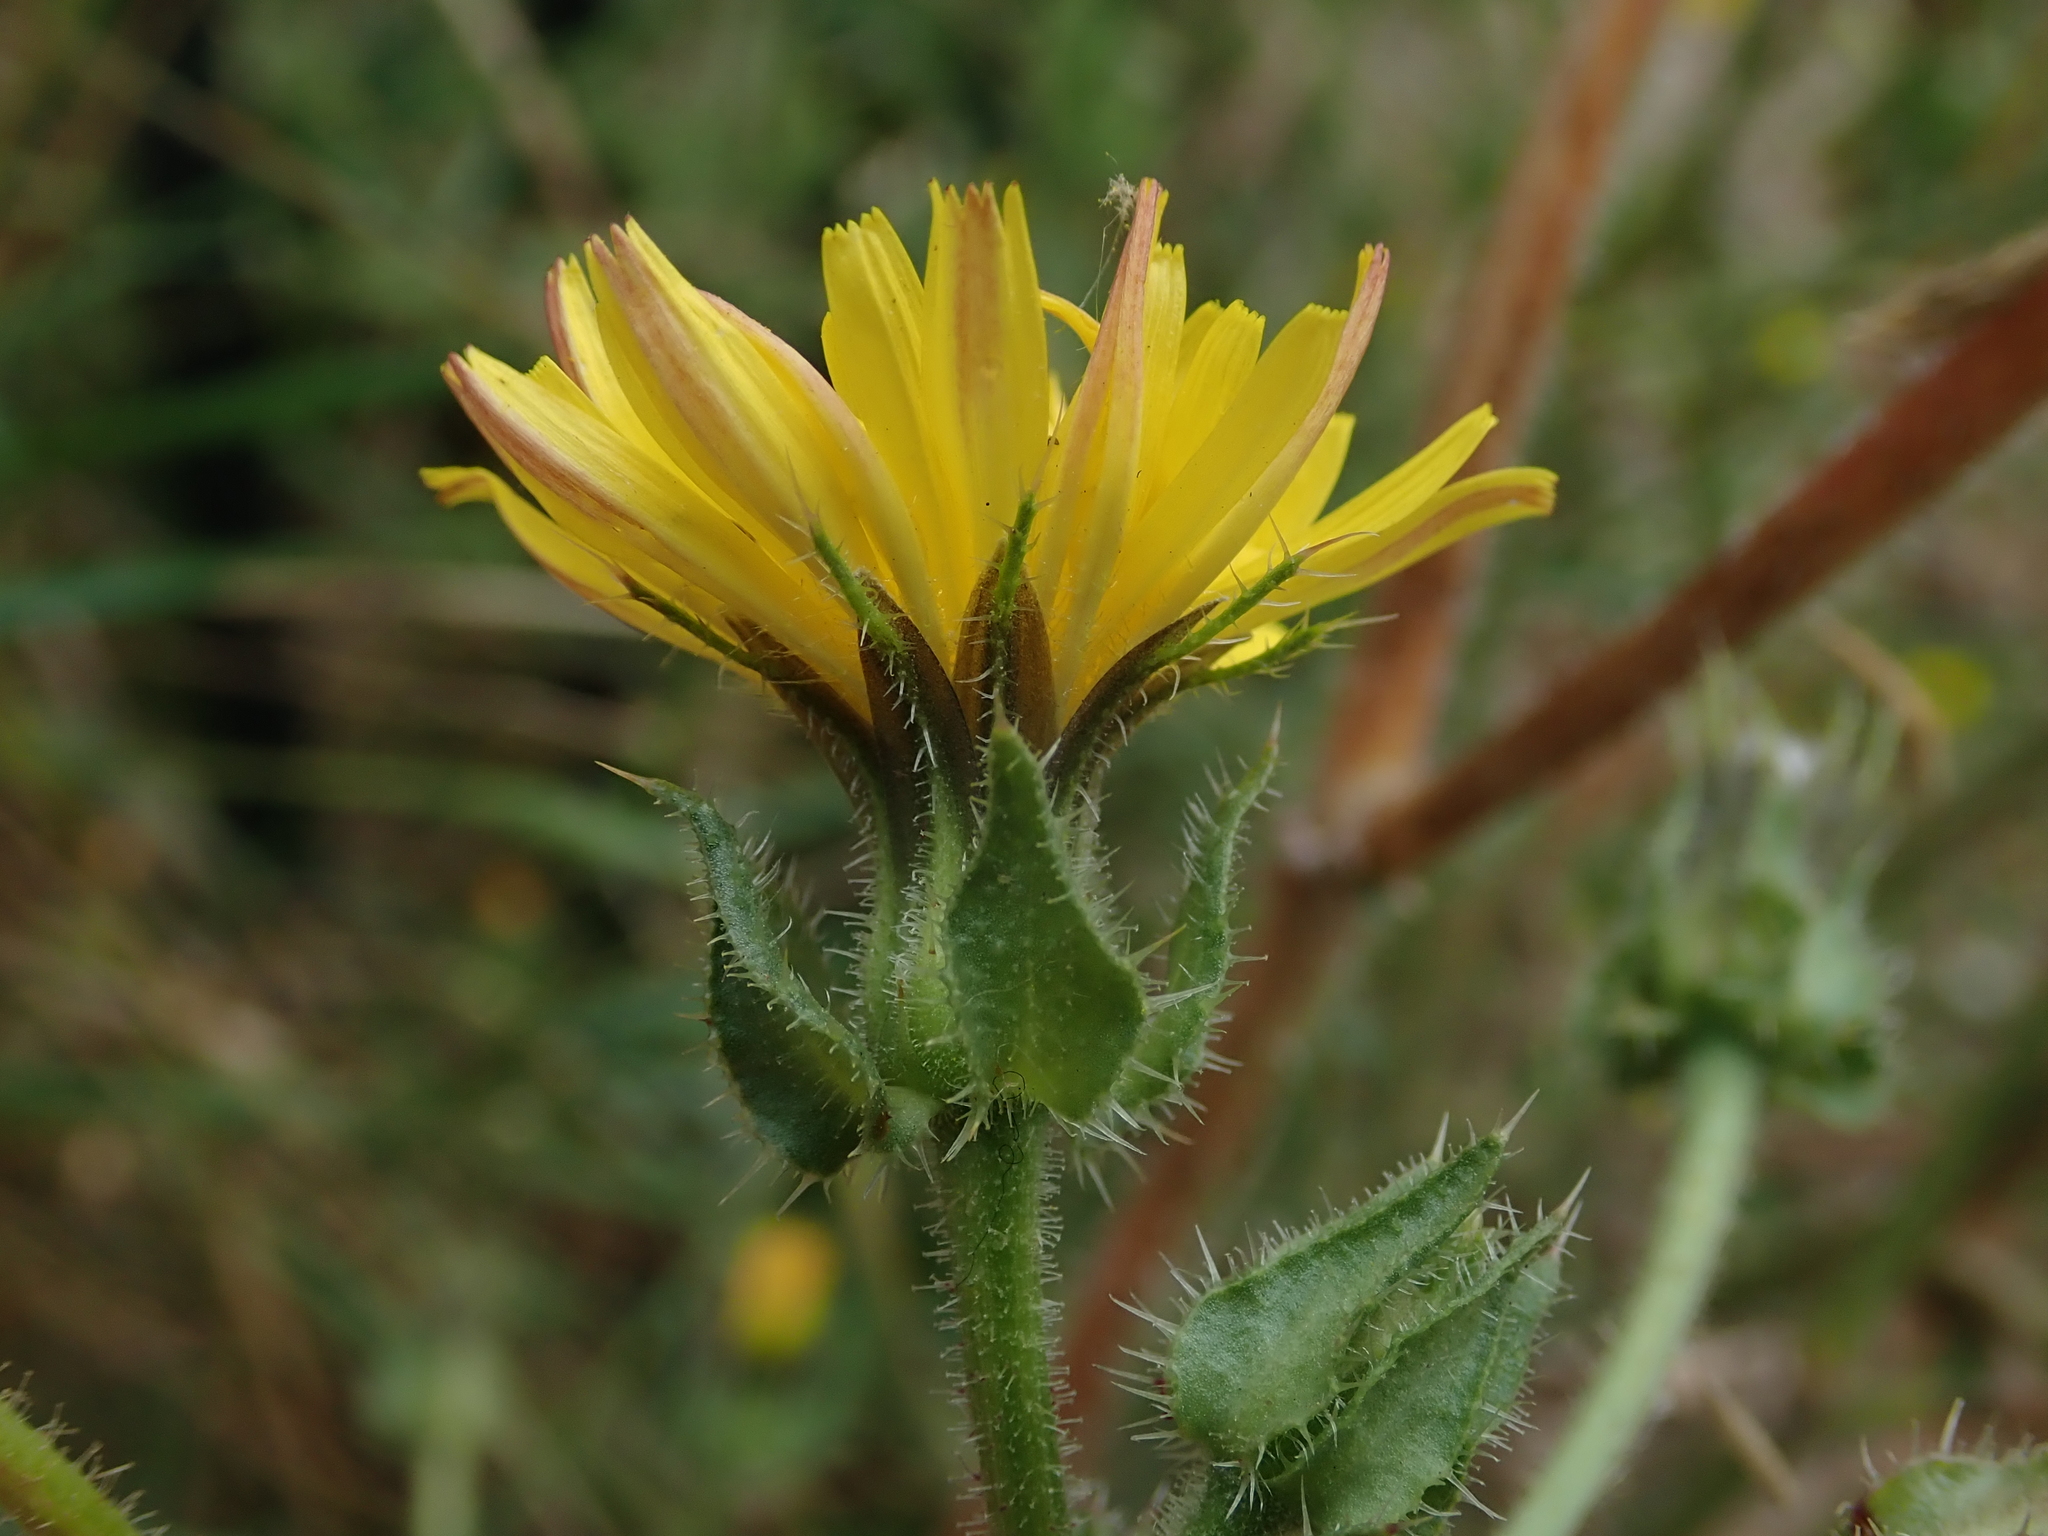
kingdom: Plantae
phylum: Tracheophyta
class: Magnoliopsida
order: Asterales
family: Asteraceae
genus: Helminthotheca
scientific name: Helminthotheca echioides
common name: Ox-tongue
